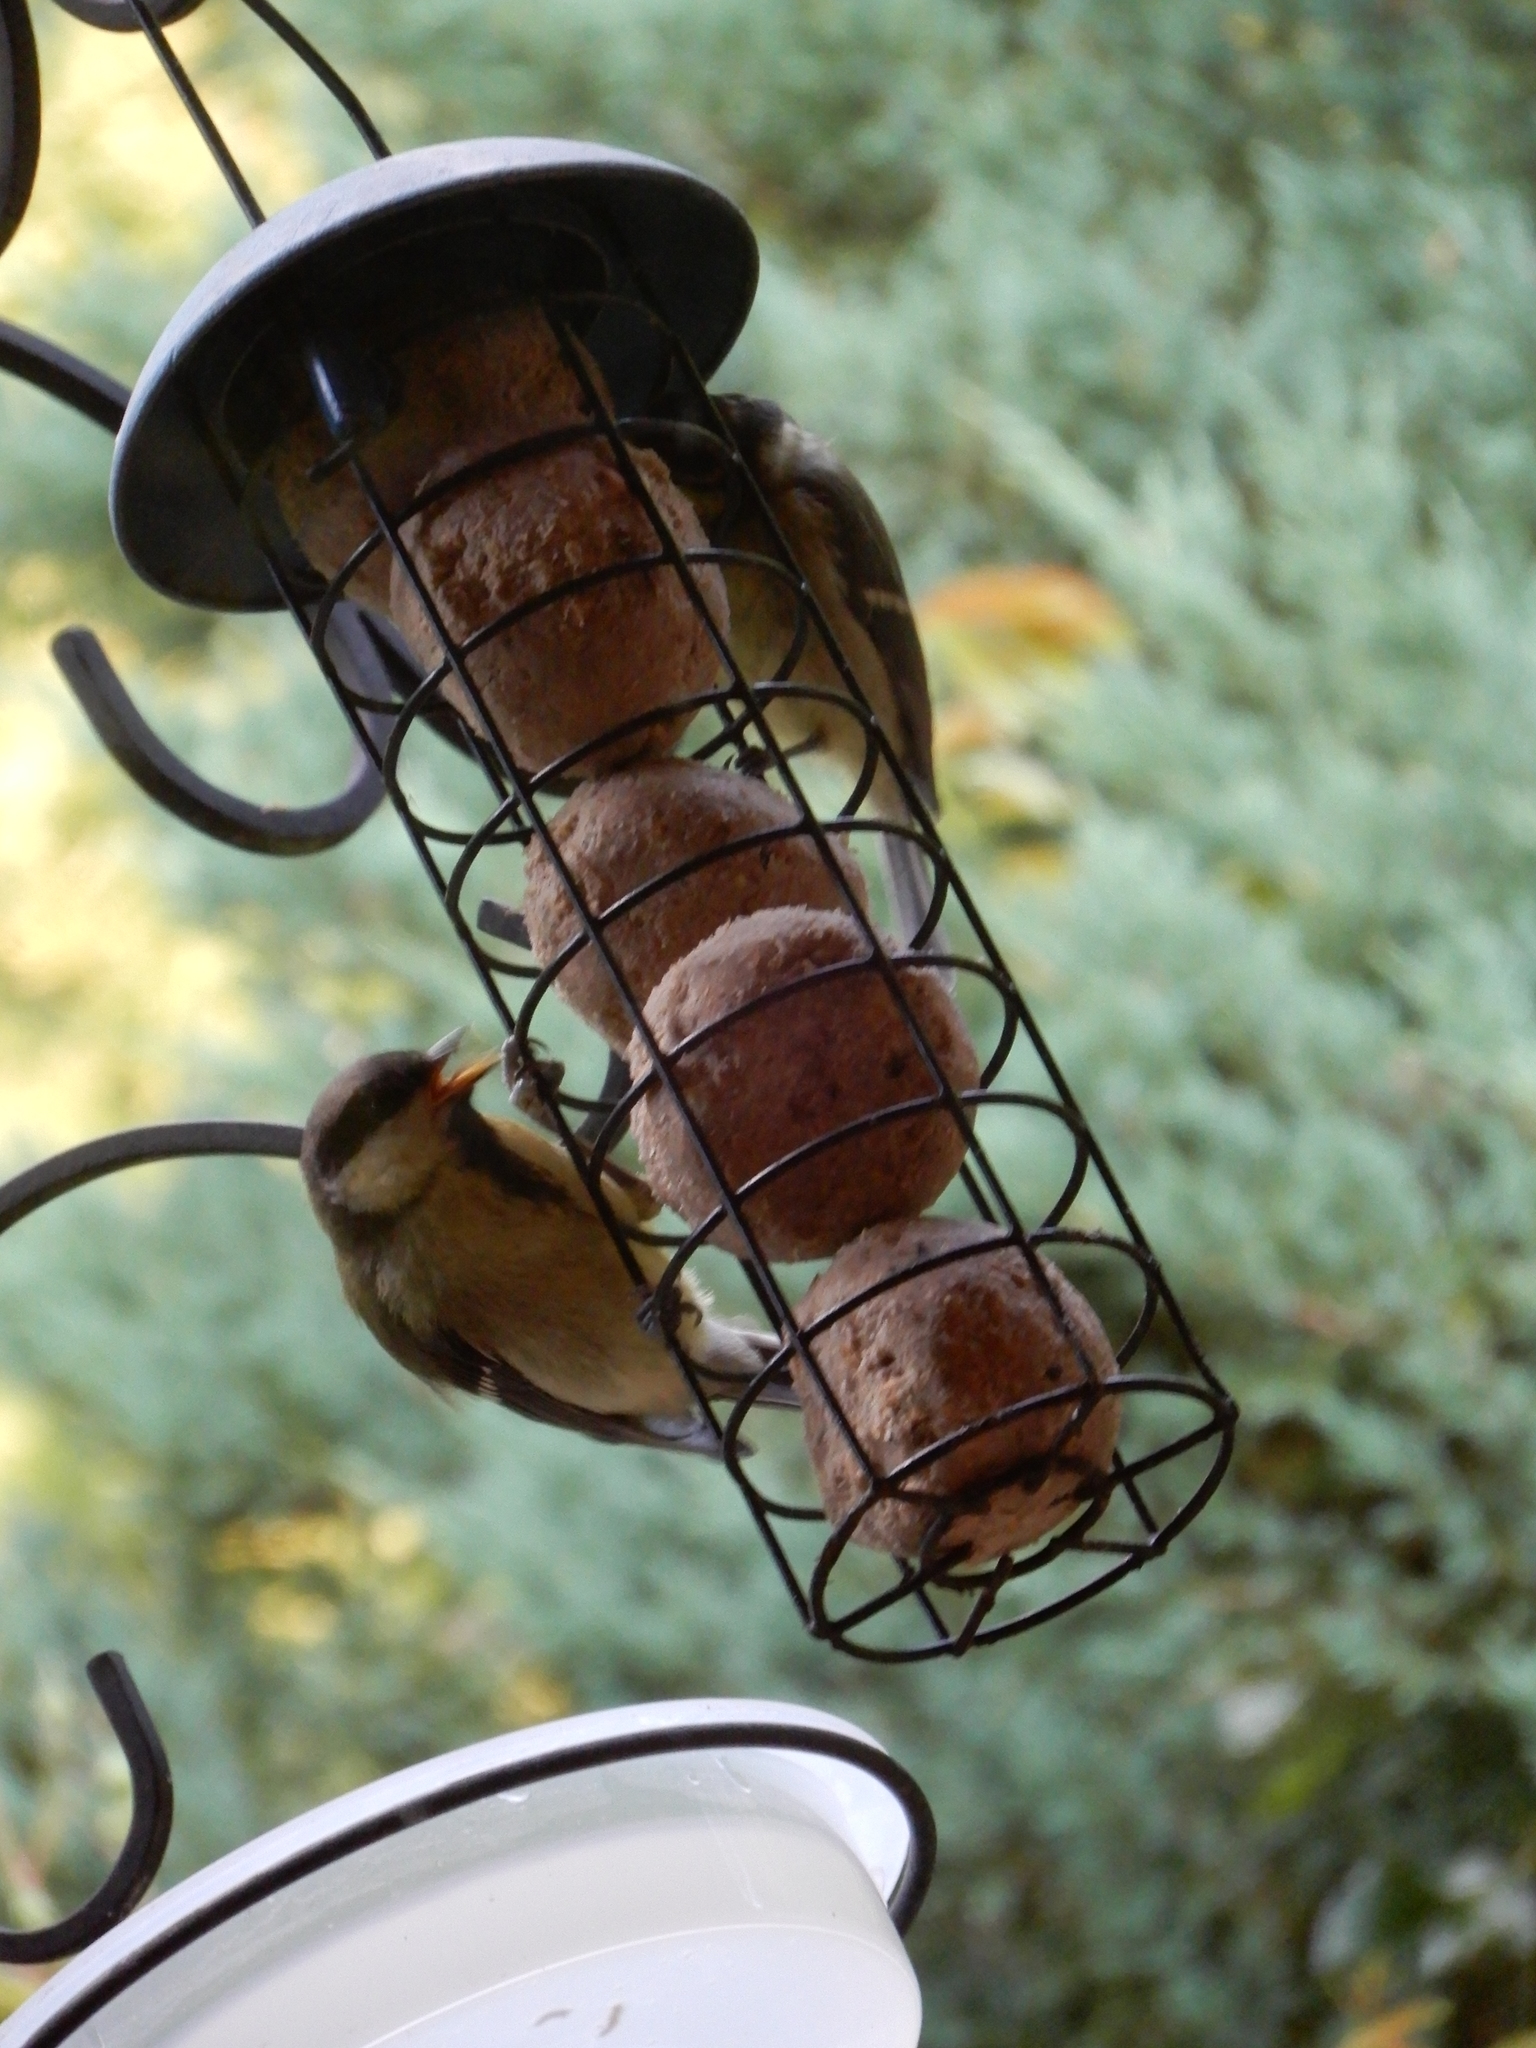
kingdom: Animalia
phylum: Chordata
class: Aves
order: Passeriformes
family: Paridae
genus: Parus
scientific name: Parus major
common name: Great tit
